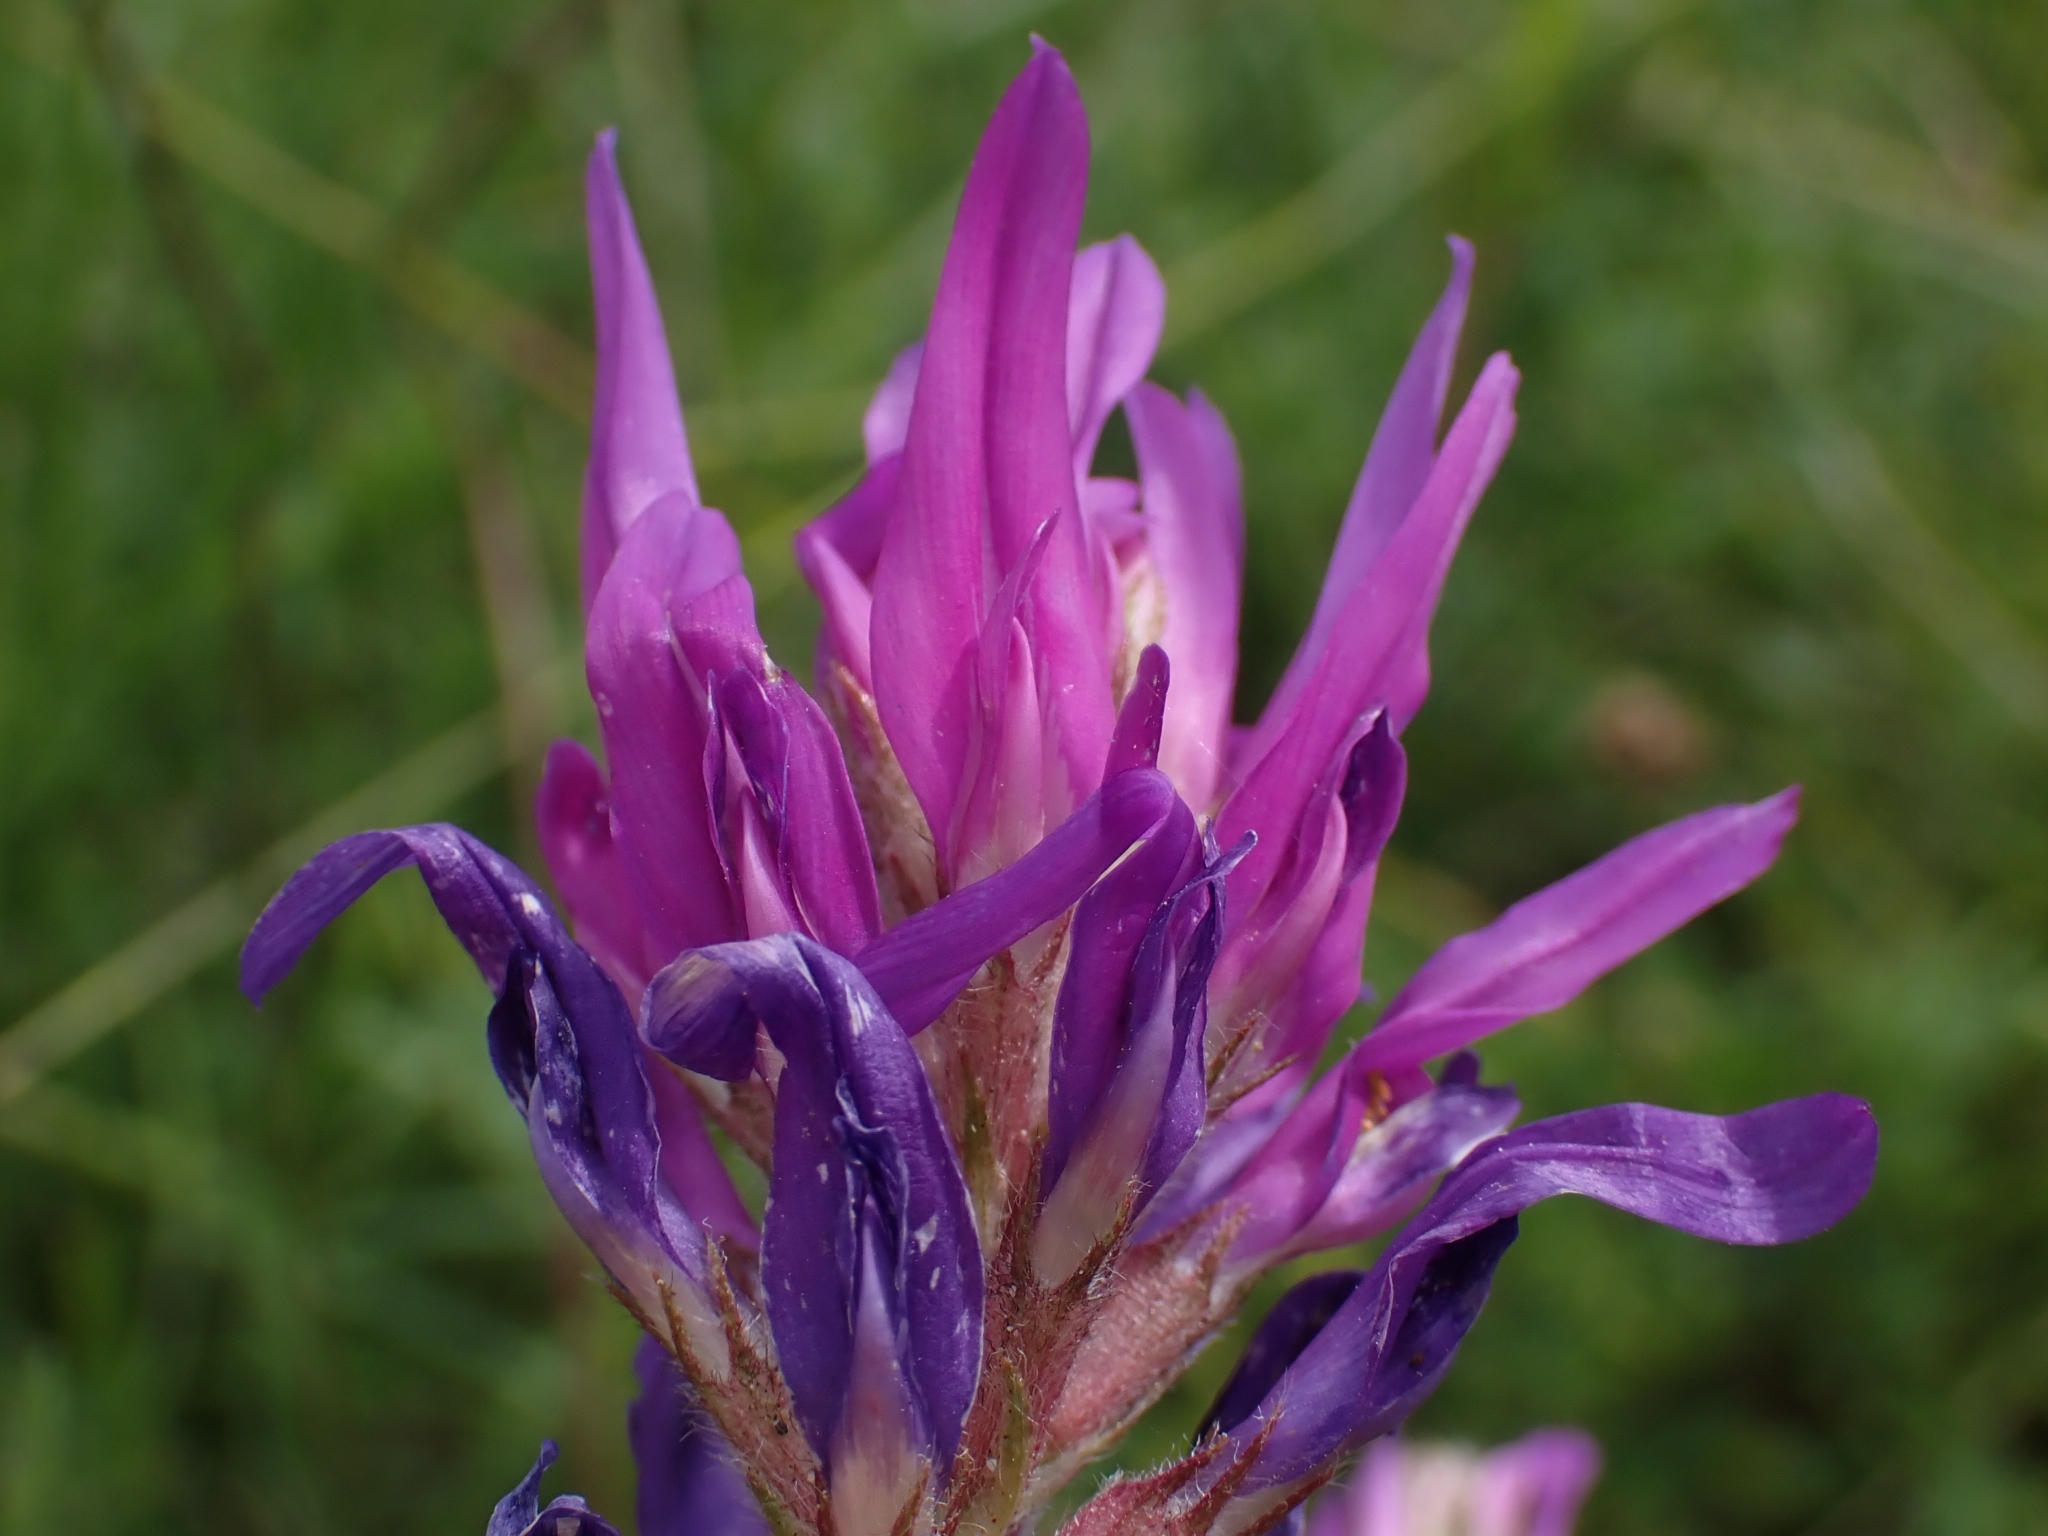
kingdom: Plantae
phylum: Tracheophyta
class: Magnoliopsida
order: Fabales
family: Fabaceae
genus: Astragalus
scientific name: Astragalus onobrychis
